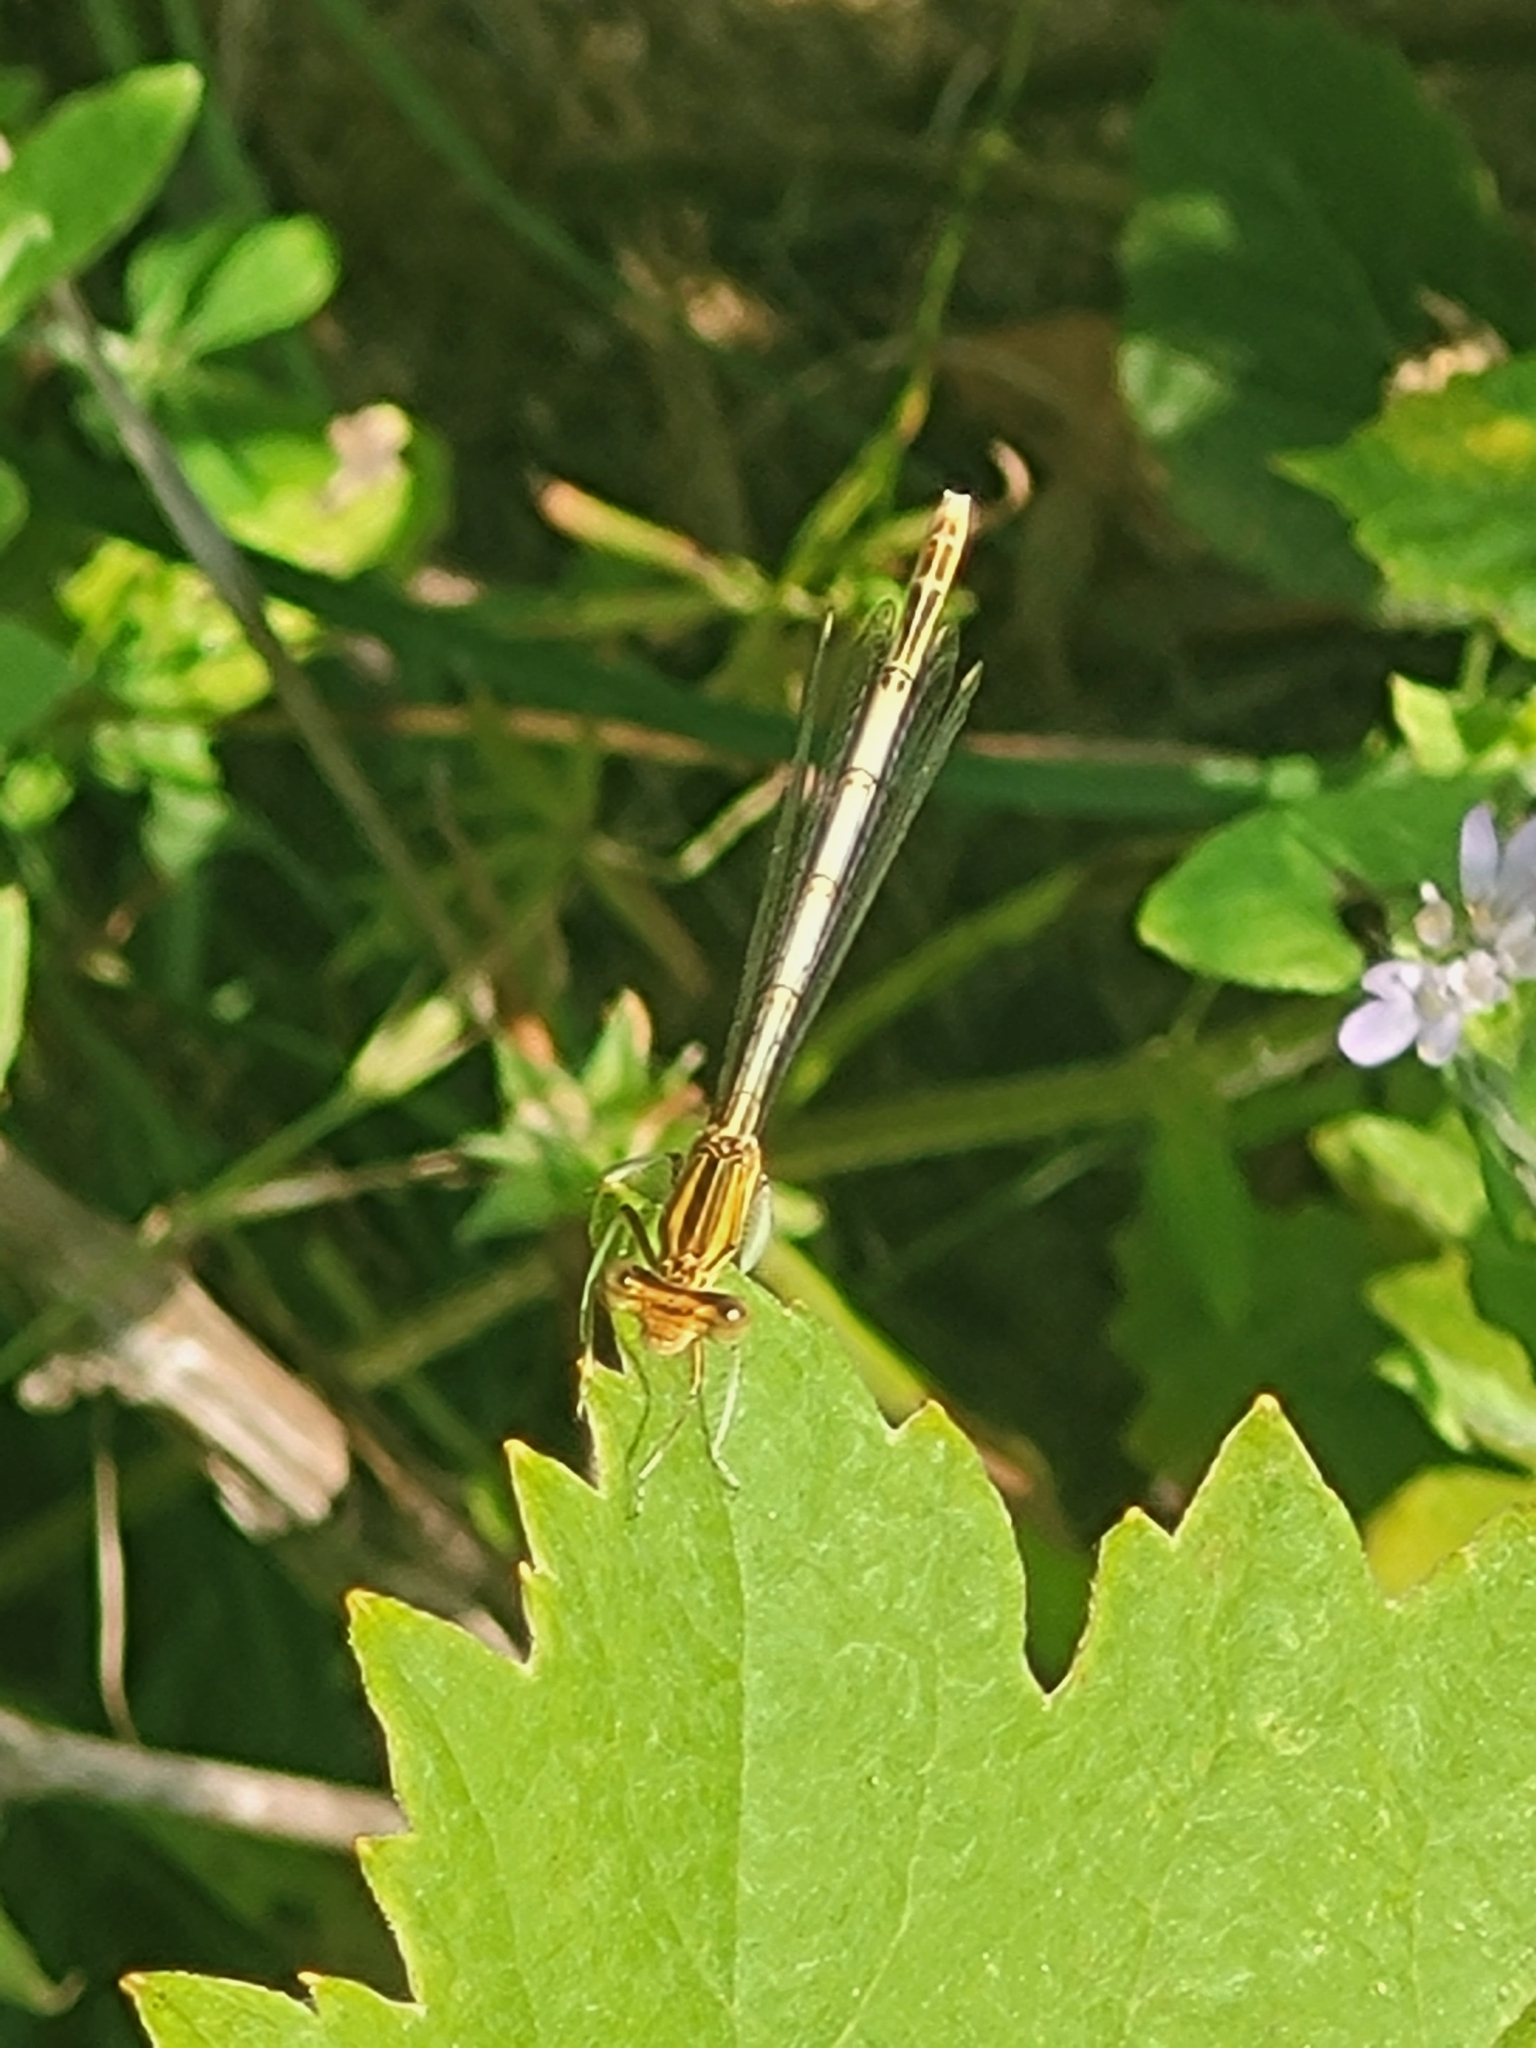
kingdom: Animalia
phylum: Arthropoda
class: Insecta
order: Odonata
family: Platycnemididae
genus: Platycnemis
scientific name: Platycnemis pennipes
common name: White-legged damselfly
